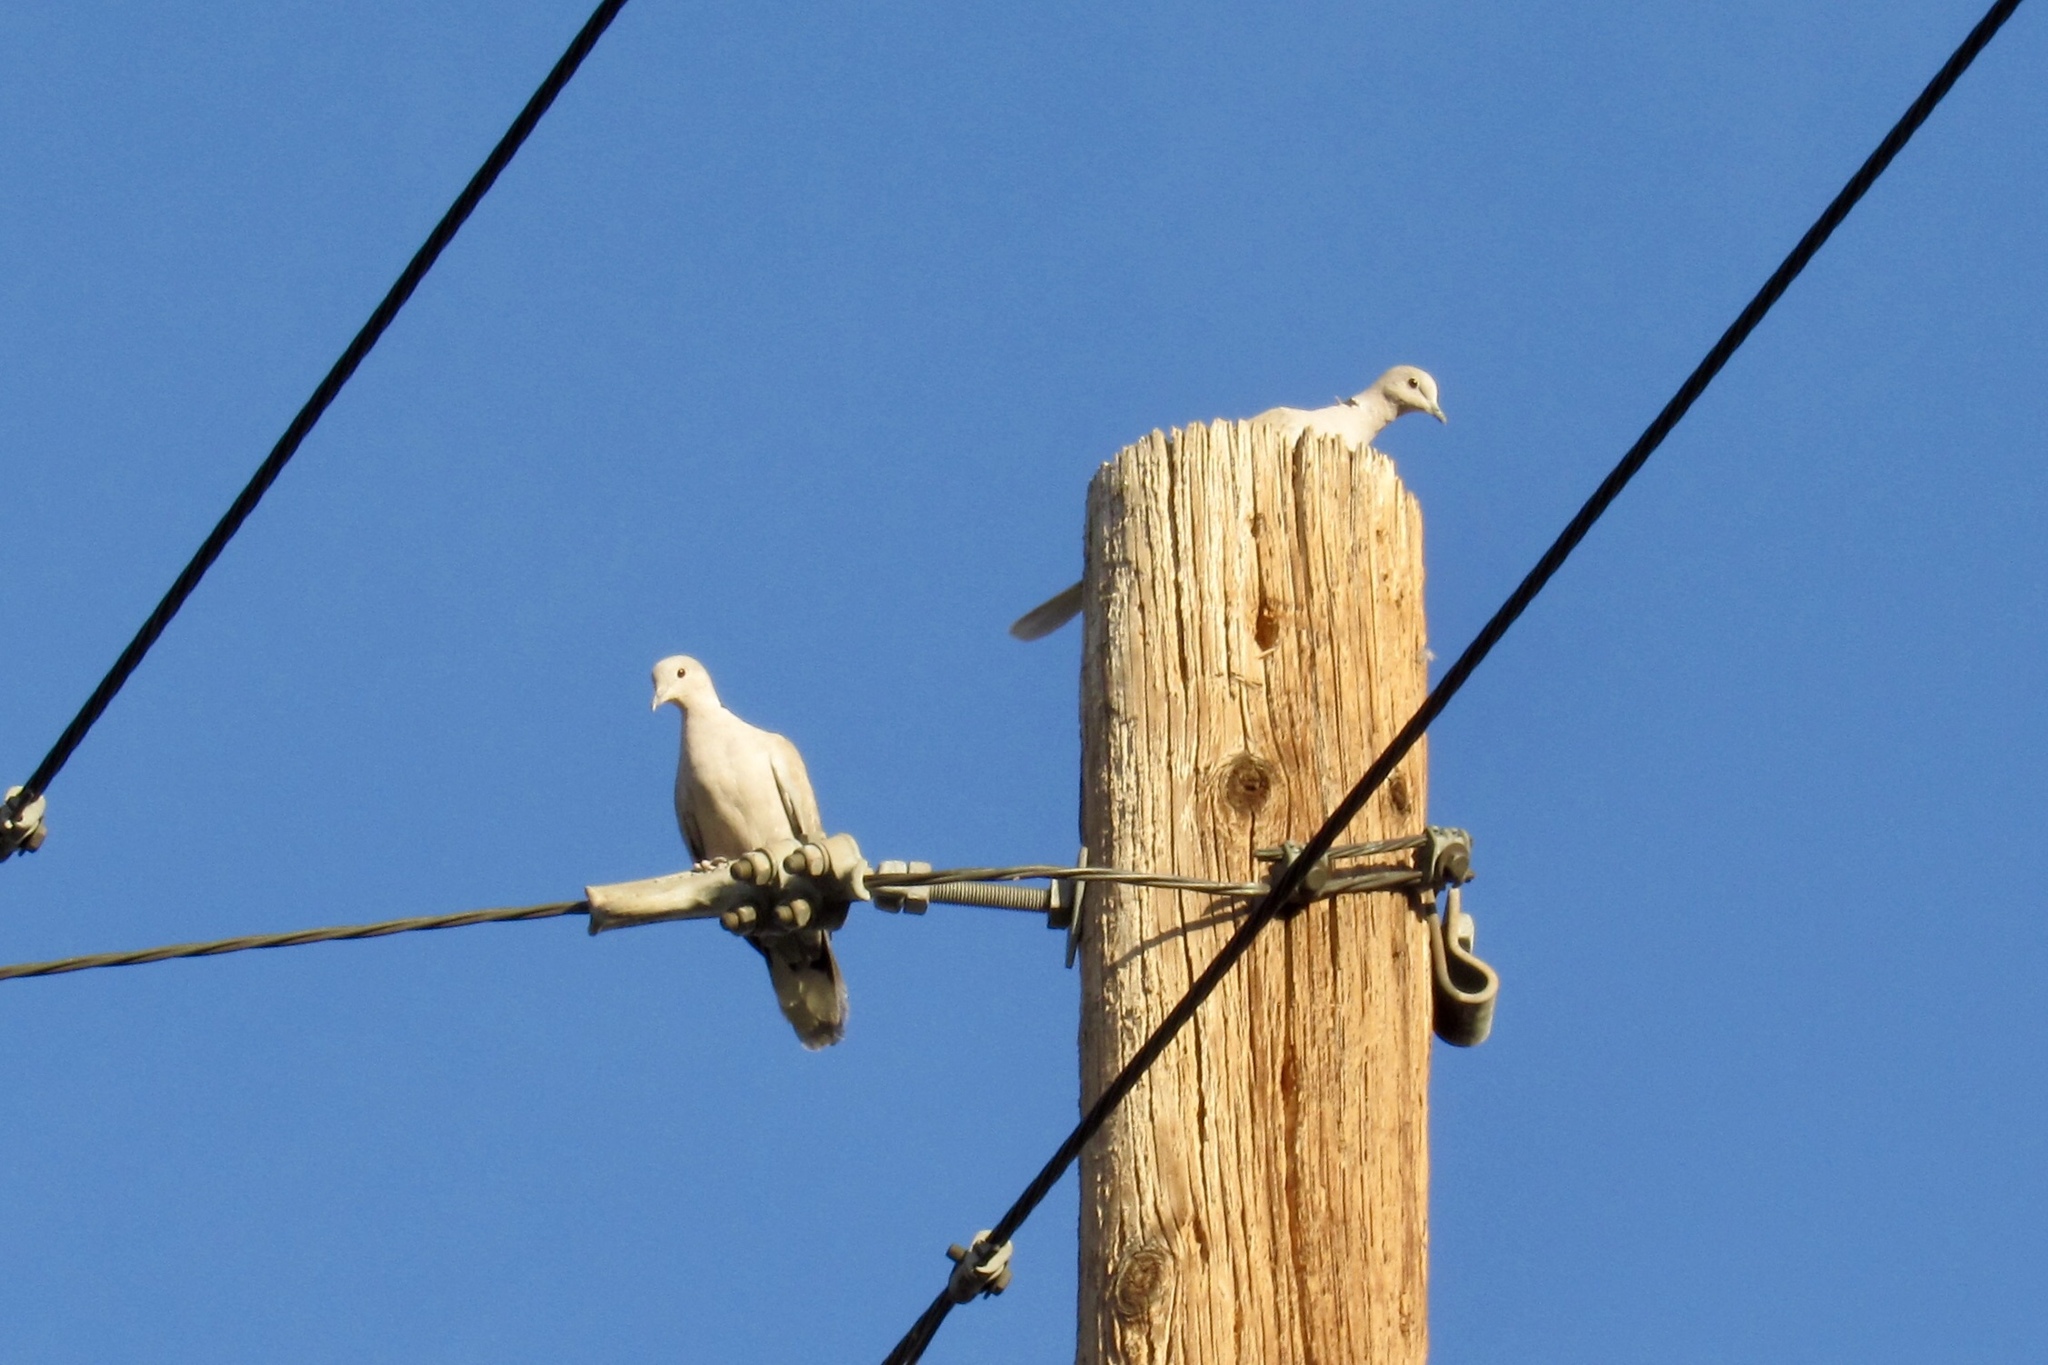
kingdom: Animalia
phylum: Chordata
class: Aves
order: Columbiformes
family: Columbidae
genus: Streptopelia
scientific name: Streptopelia decaocto
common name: Eurasian collared dove
